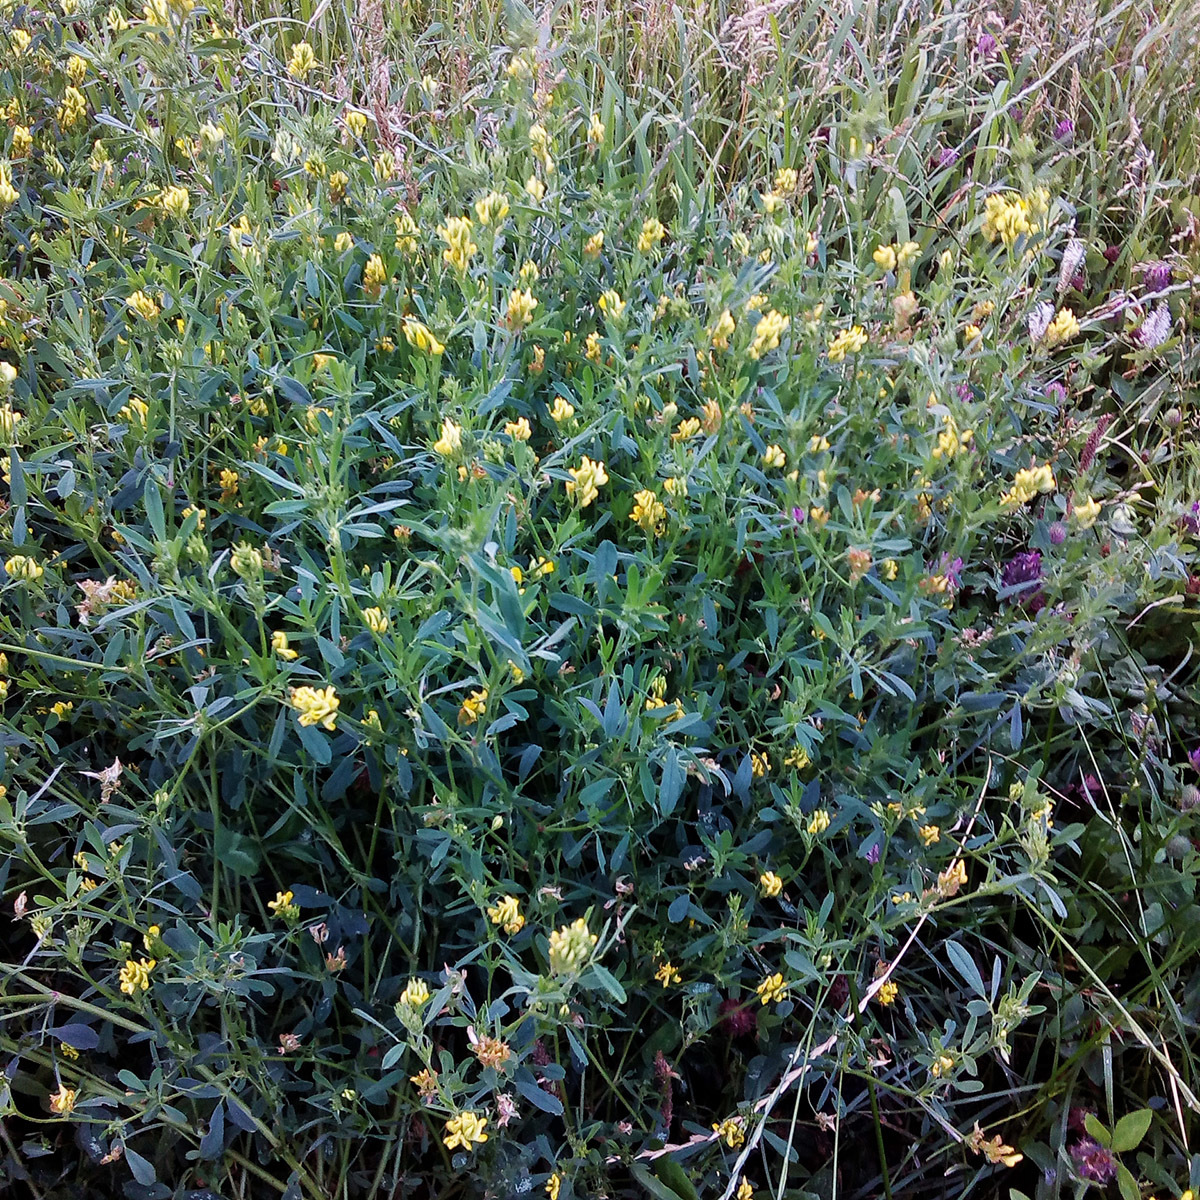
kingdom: Plantae
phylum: Tracheophyta
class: Magnoliopsida
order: Fabales
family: Fabaceae
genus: Medicago
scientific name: Medicago falcata
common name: Sickle medick
